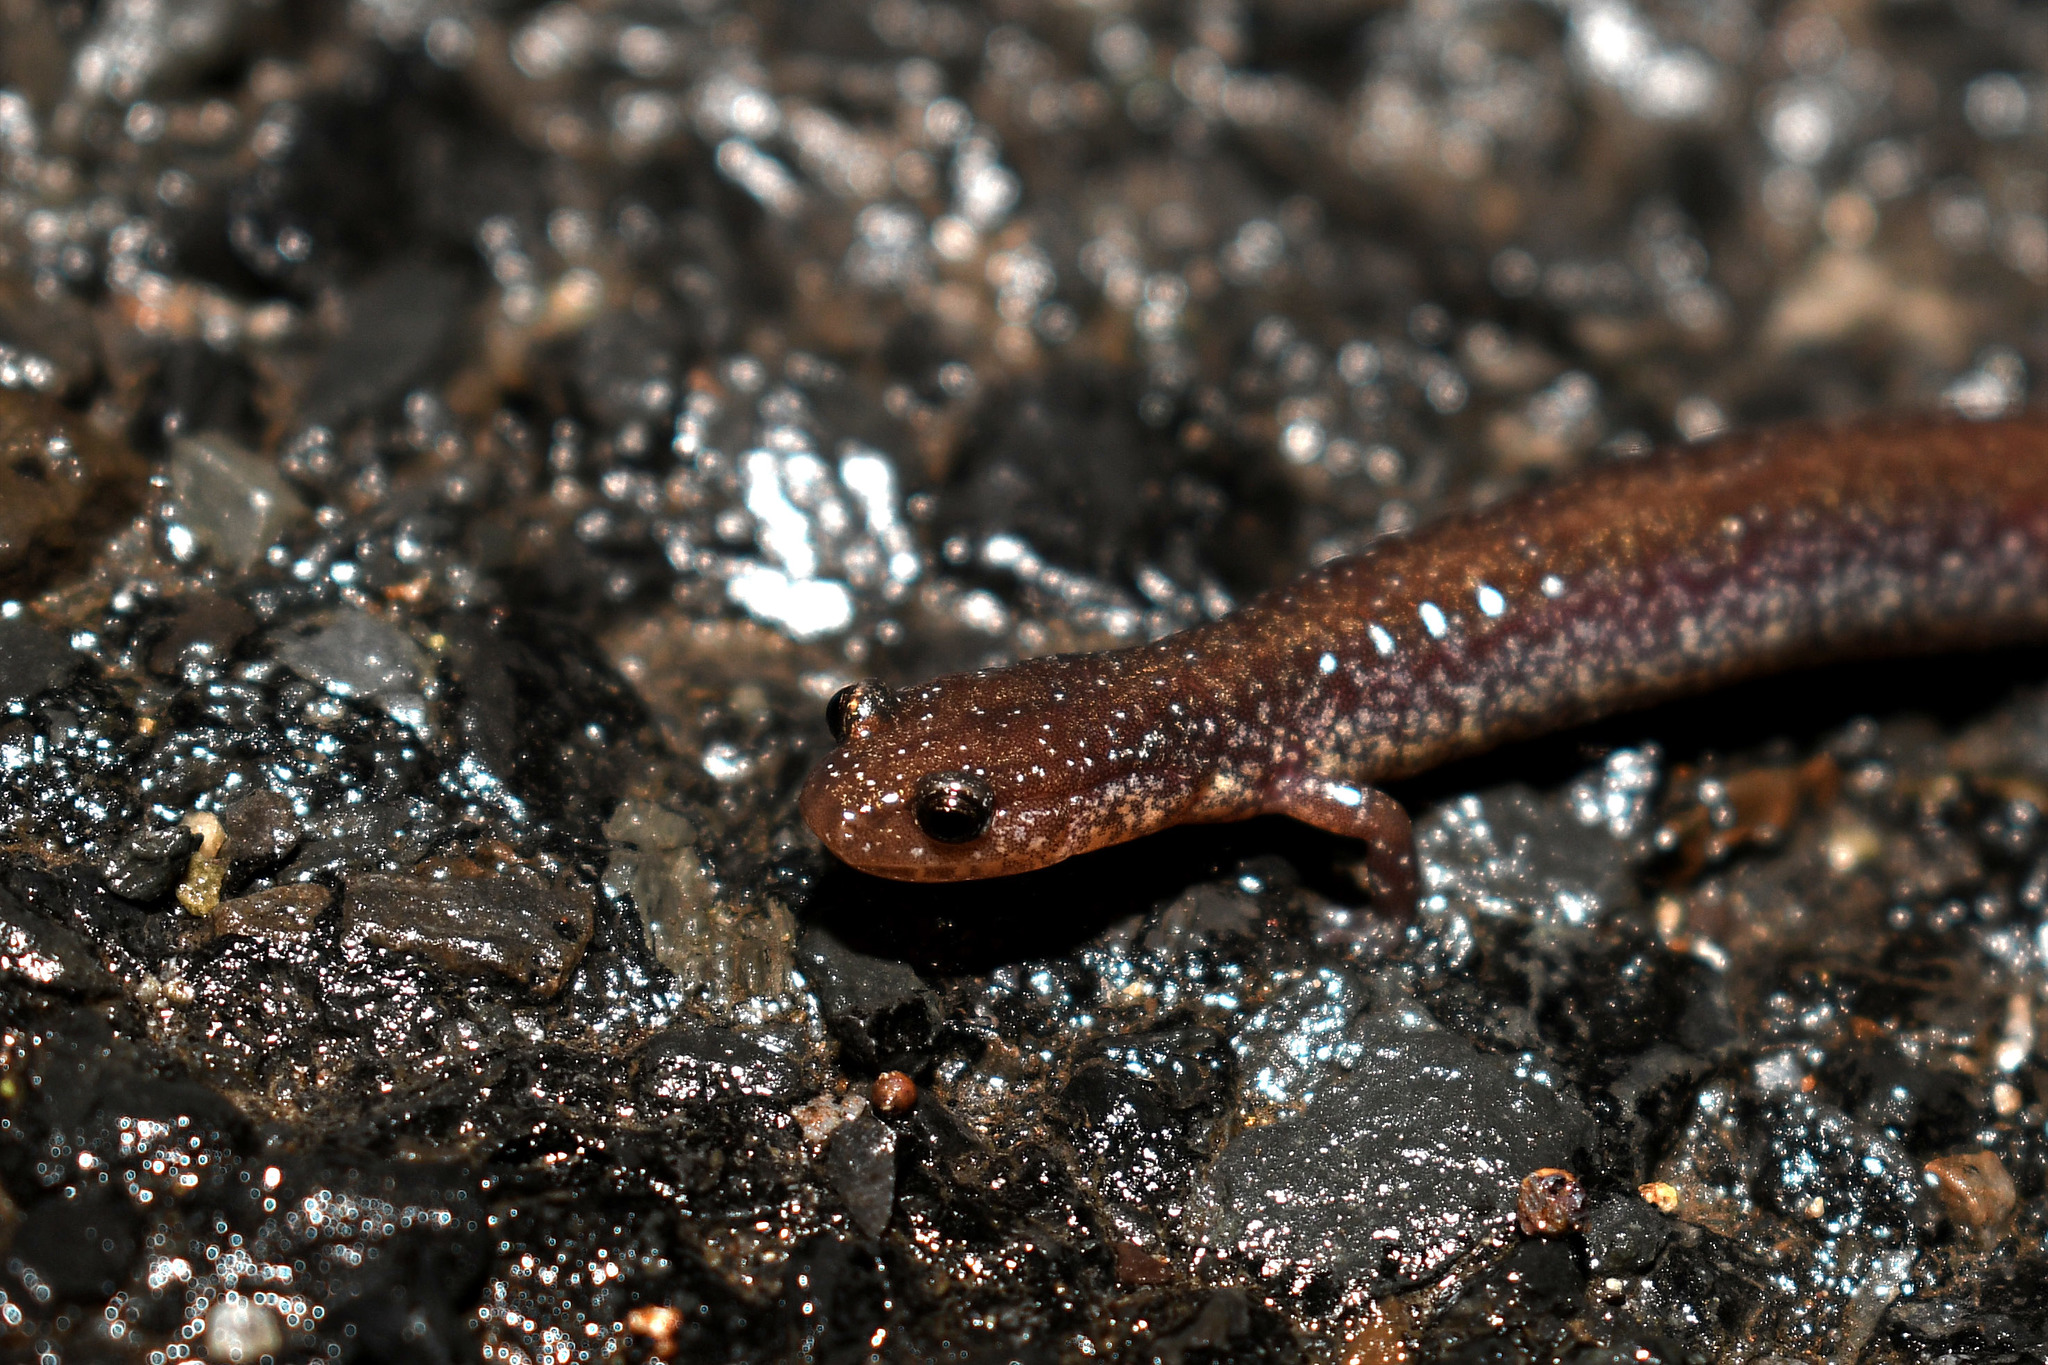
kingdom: Animalia
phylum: Chordata
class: Amphibia
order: Caudata
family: Plethodontidae
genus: Plethodon
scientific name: Plethodon cinereus
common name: Redback salamander
